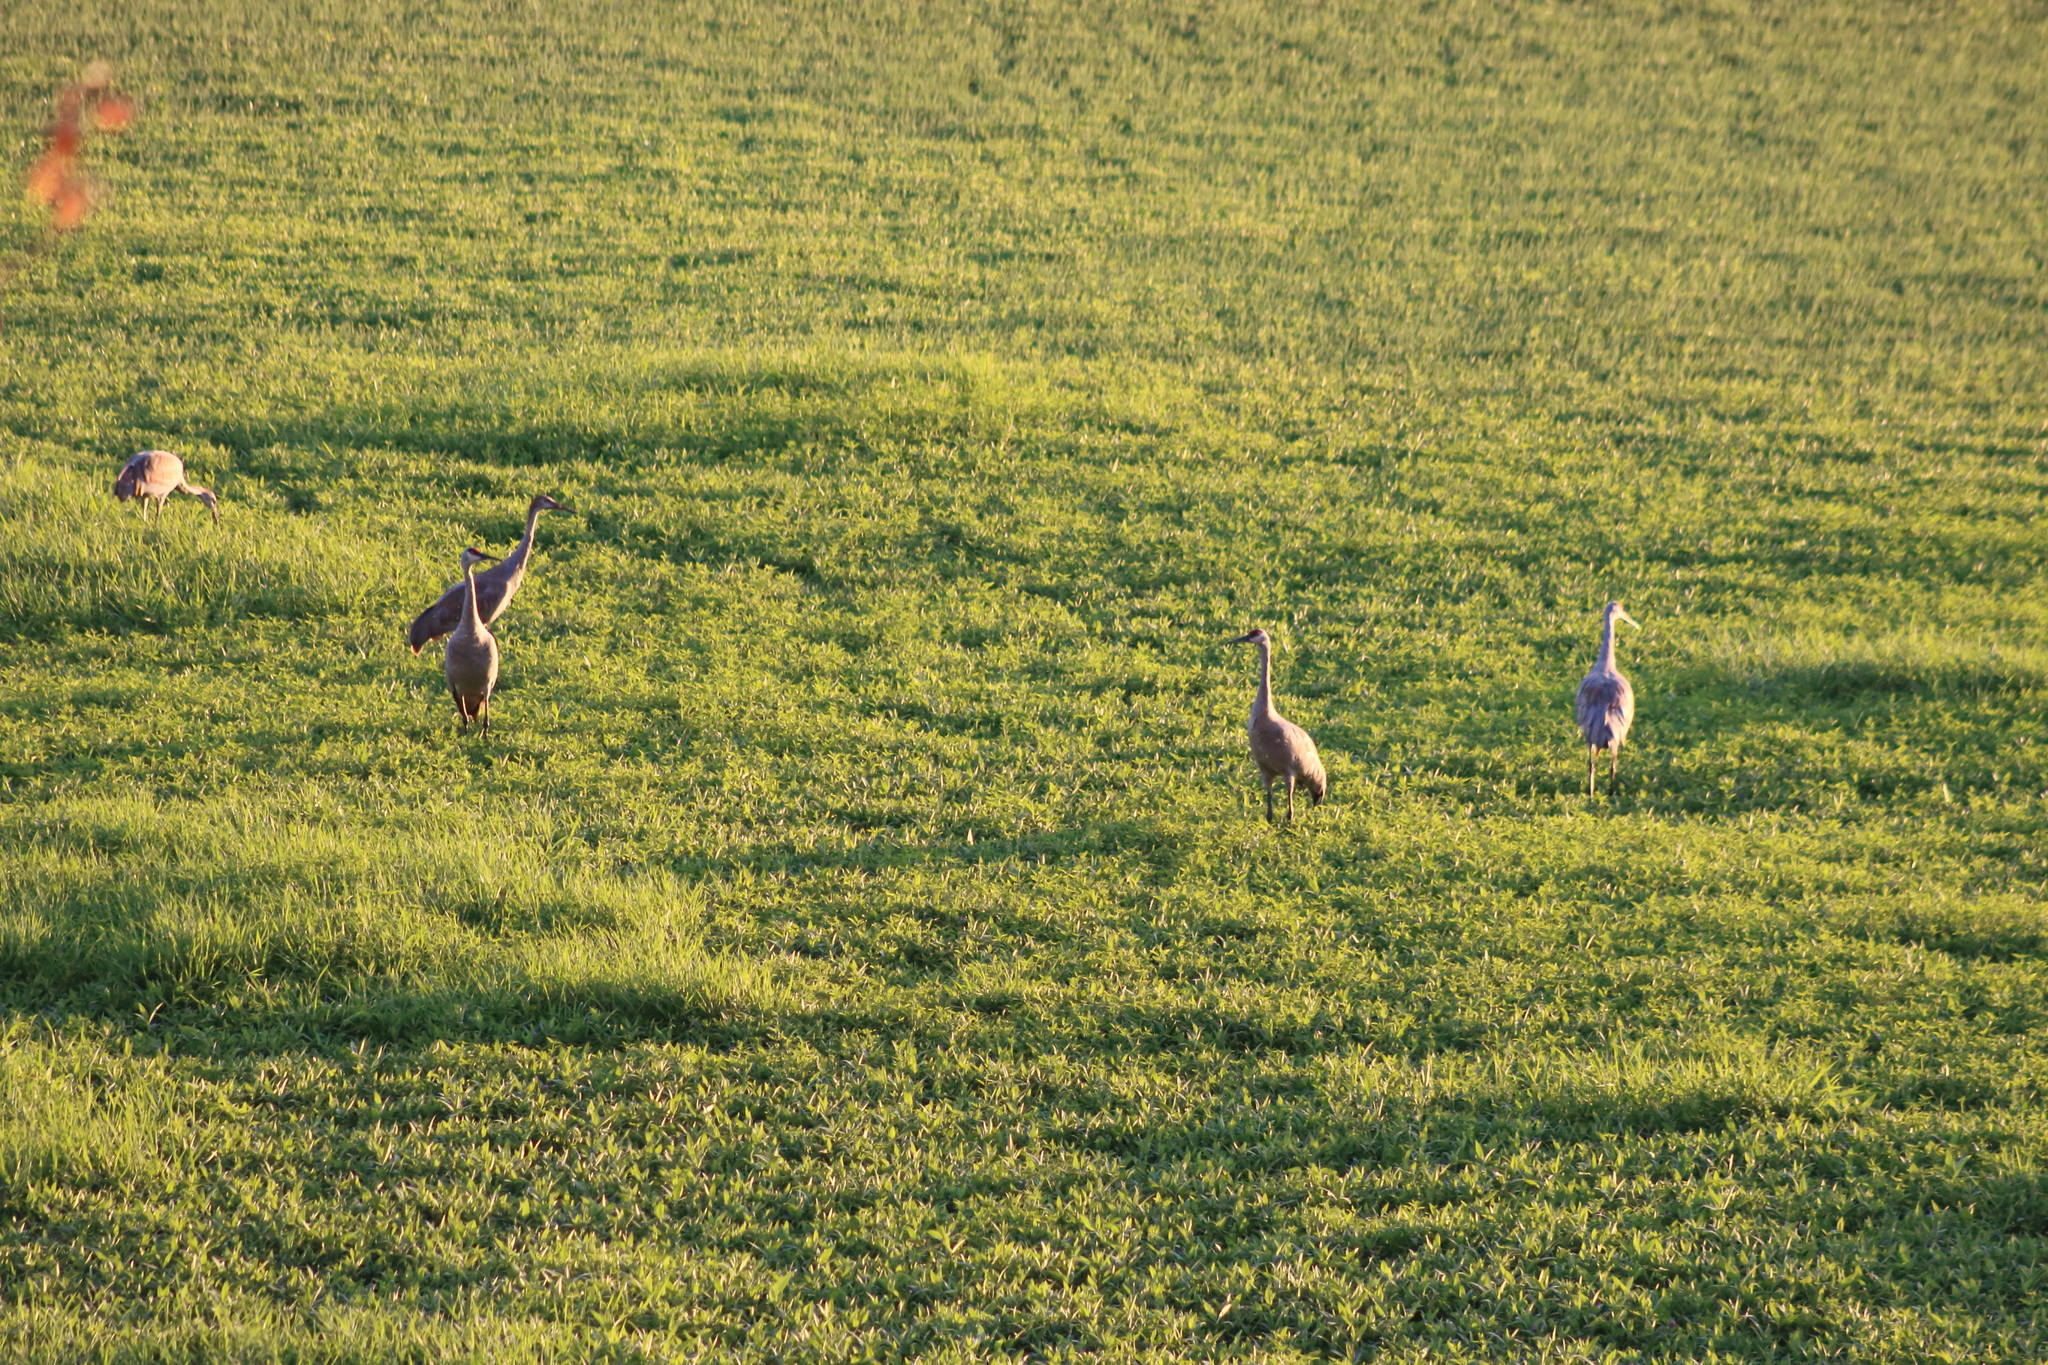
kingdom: Animalia
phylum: Chordata
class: Aves
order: Gruiformes
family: Gruidae
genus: Grus
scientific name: Grus canadensis
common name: Sandhill crane
